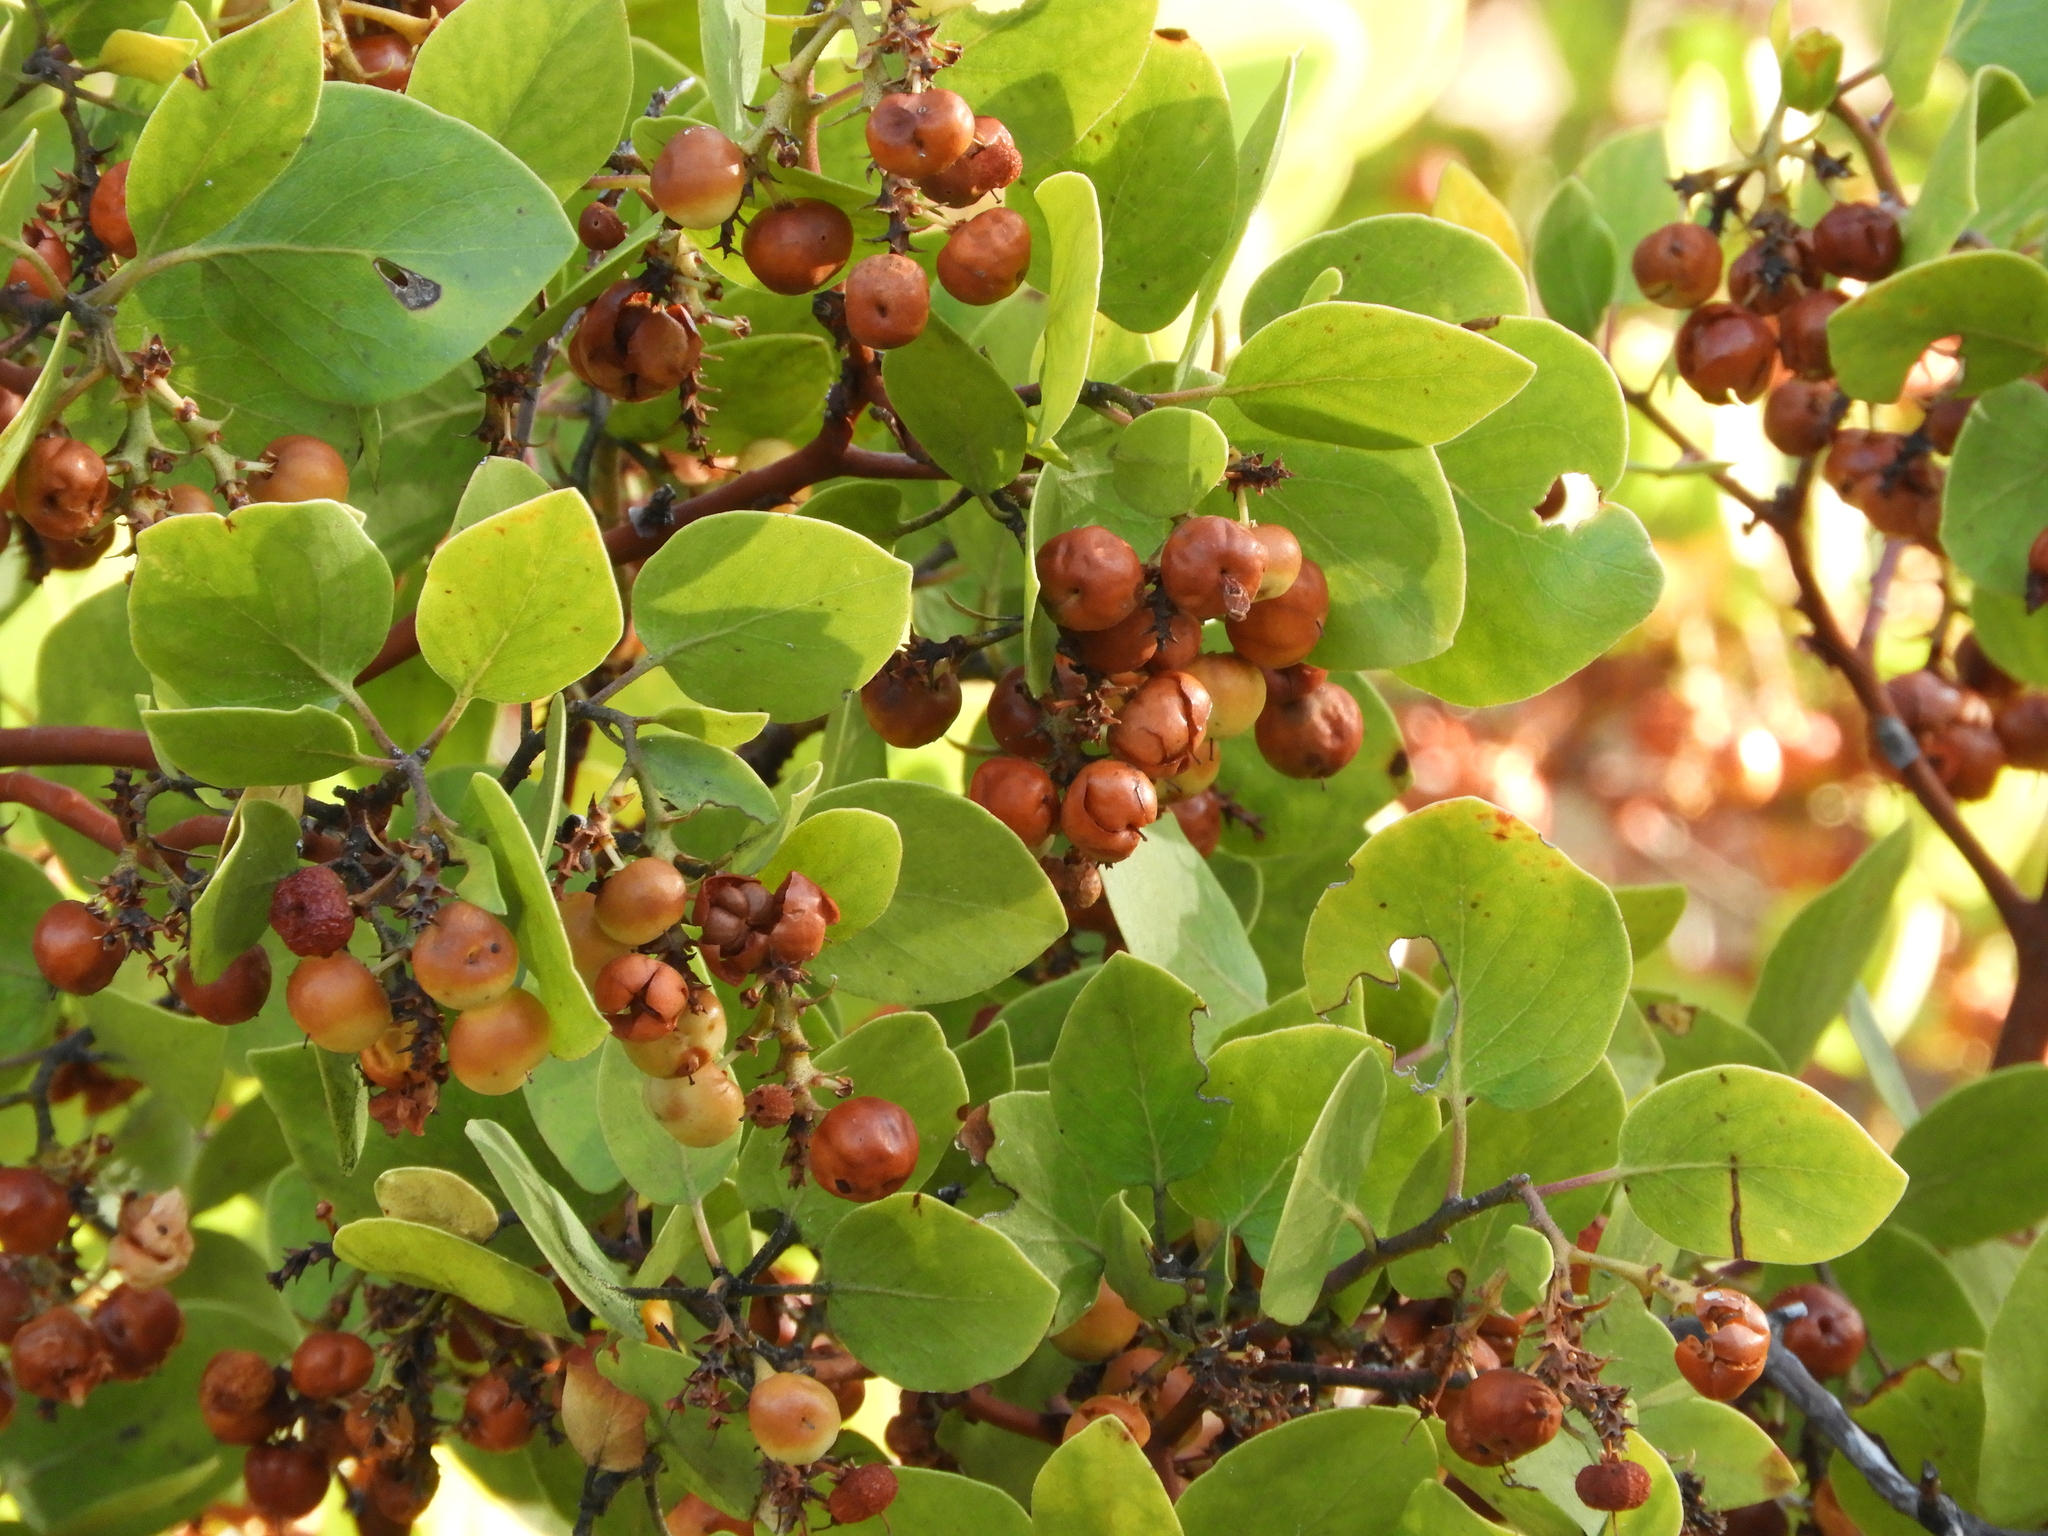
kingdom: Plantae
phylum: Tracheophyta
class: Magnoliopsida
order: Ericales
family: Ericaceae
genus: Arctostaphylos
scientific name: Arctostaphylos patula
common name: Green-leaf manzanita
